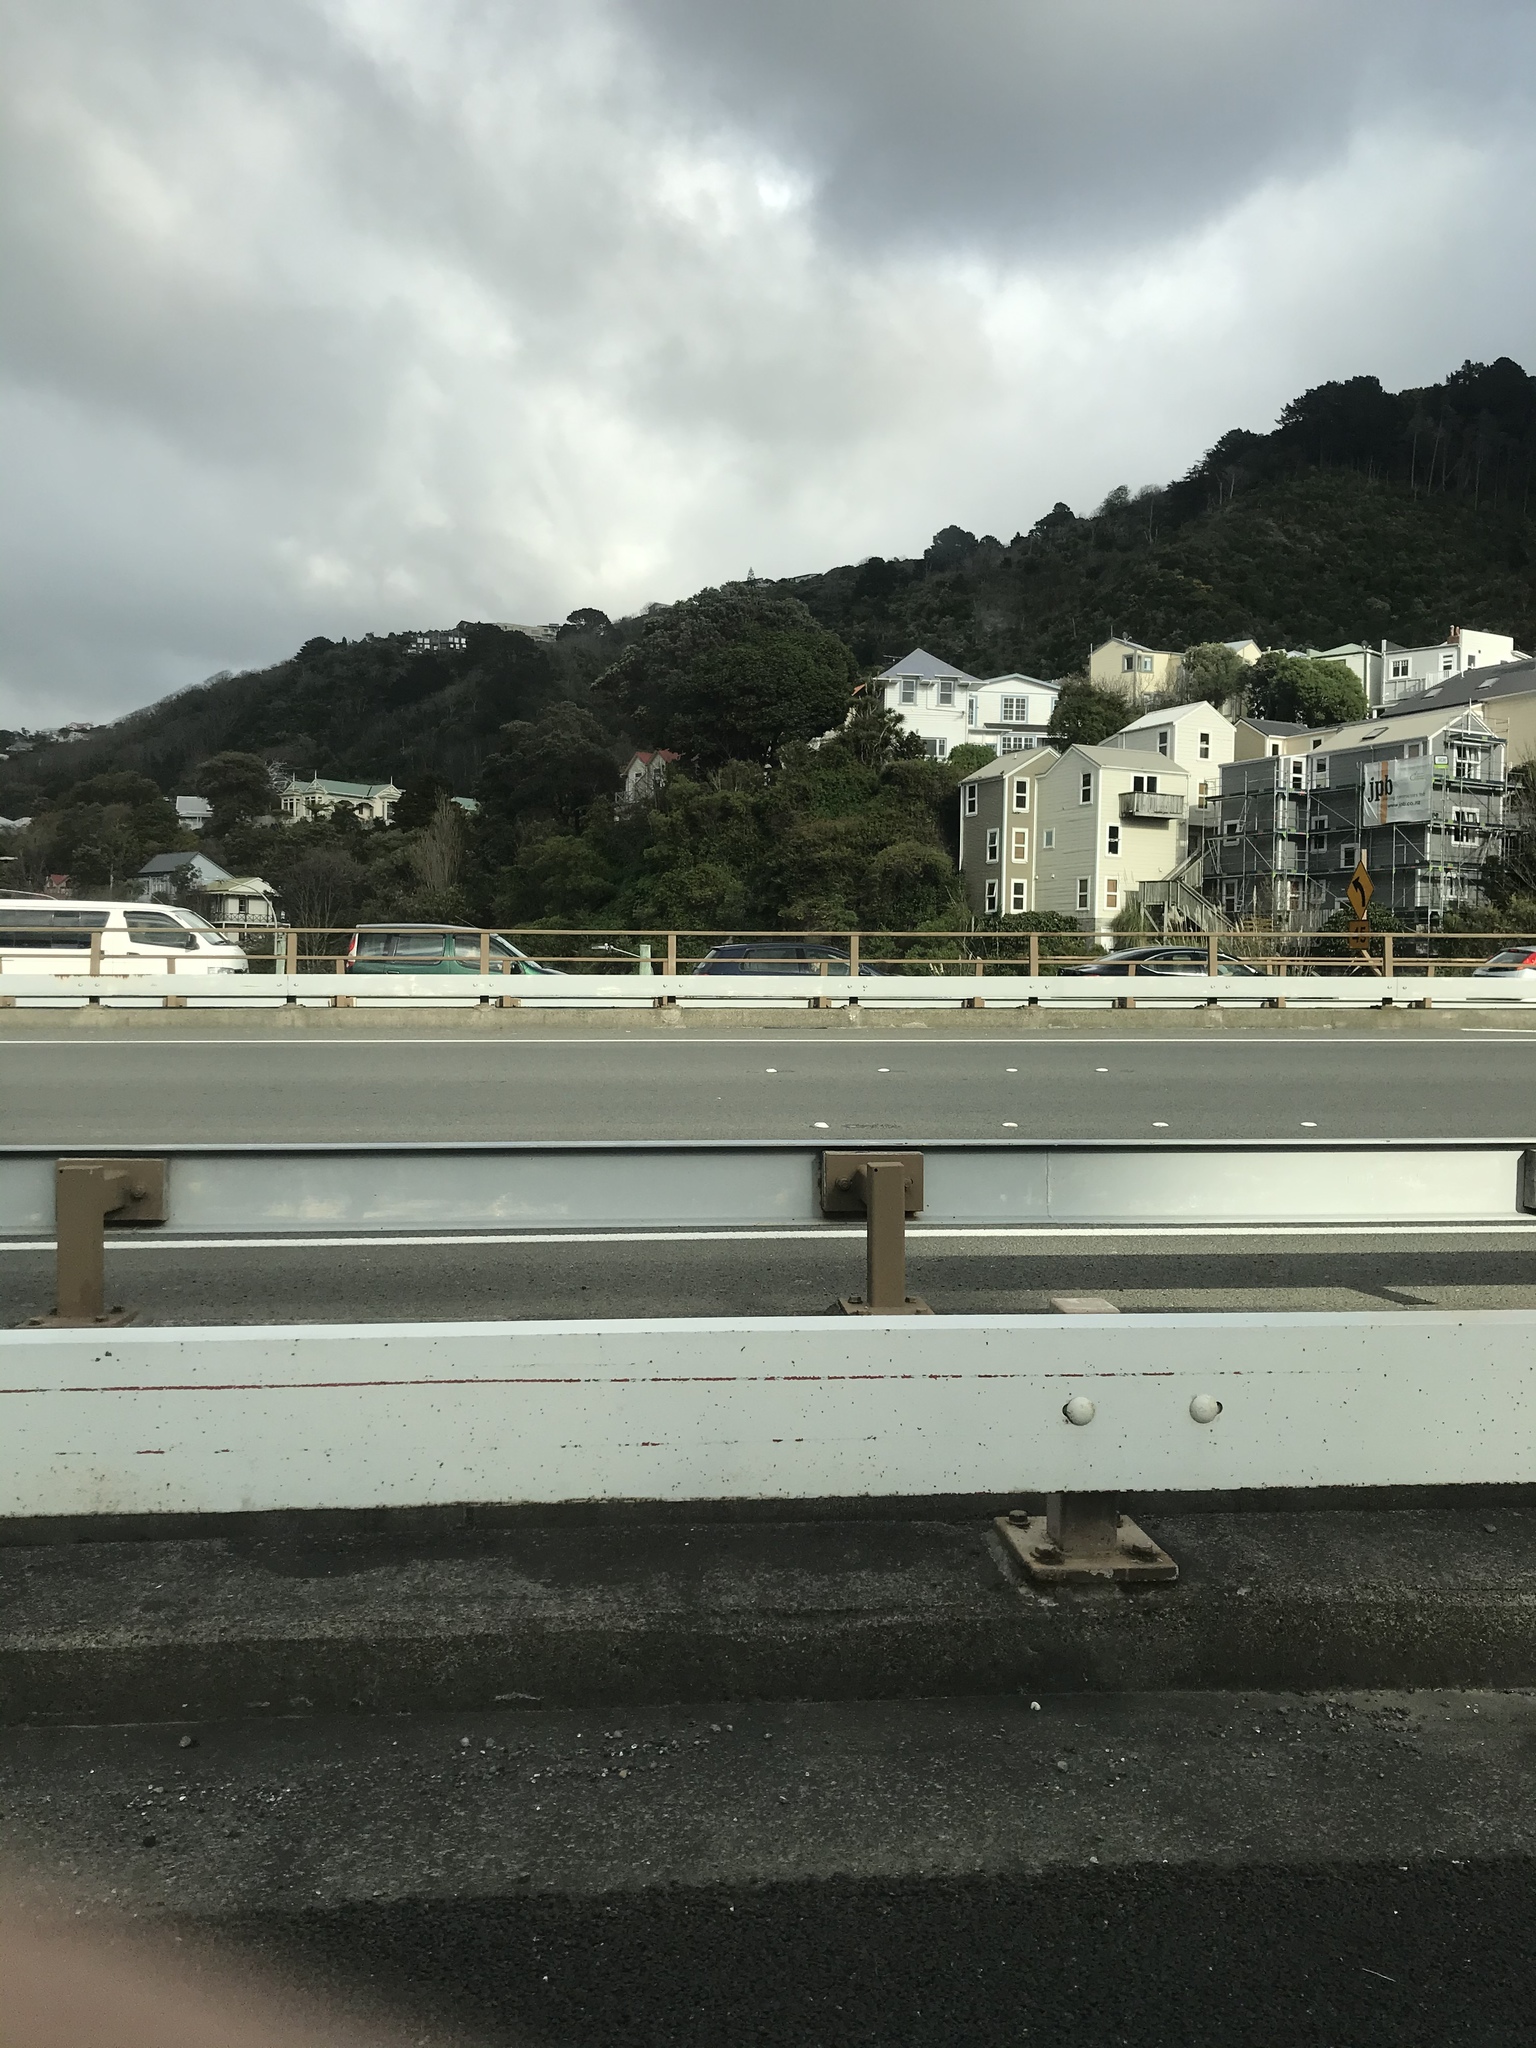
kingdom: Animalia
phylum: Chordata
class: Aves
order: Columbiformes
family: Columbidae
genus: Hemiphaga
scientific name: Hemiphaga novaeseelandiae
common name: New zealand pigeon
